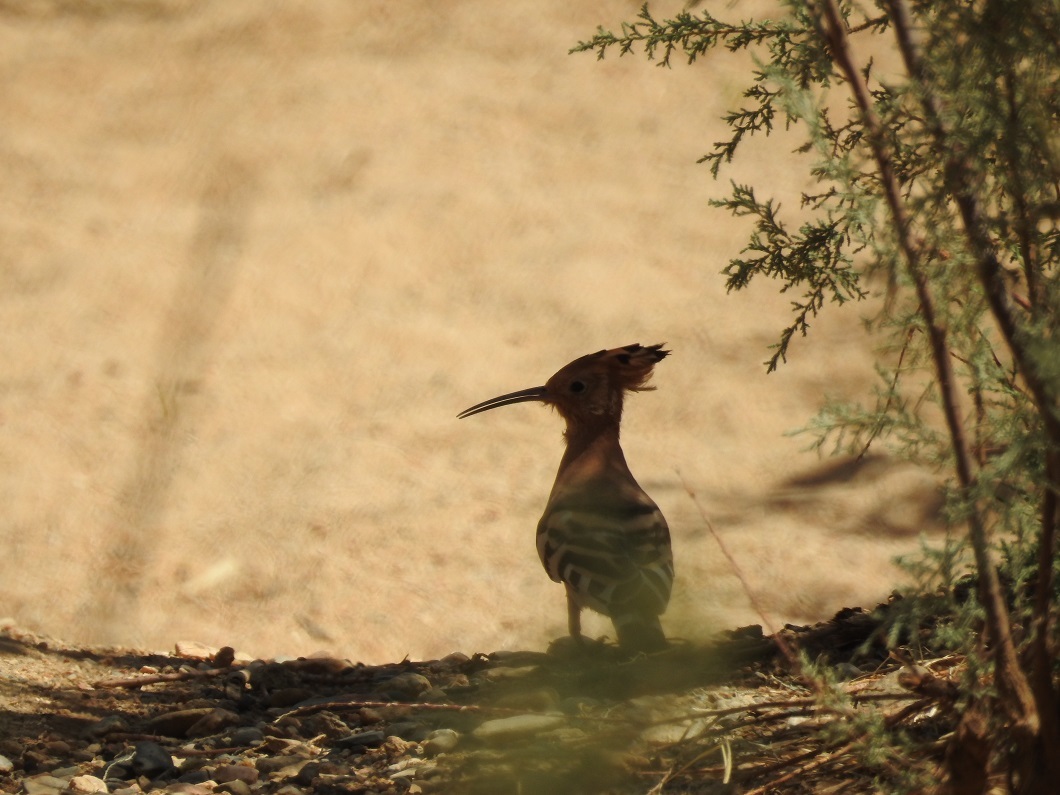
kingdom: Animalia
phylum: Chordata
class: Aves
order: Bucerotiformes
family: Upupidae
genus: Upupa
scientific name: Upupa epops
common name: Eurasian hoopoe
